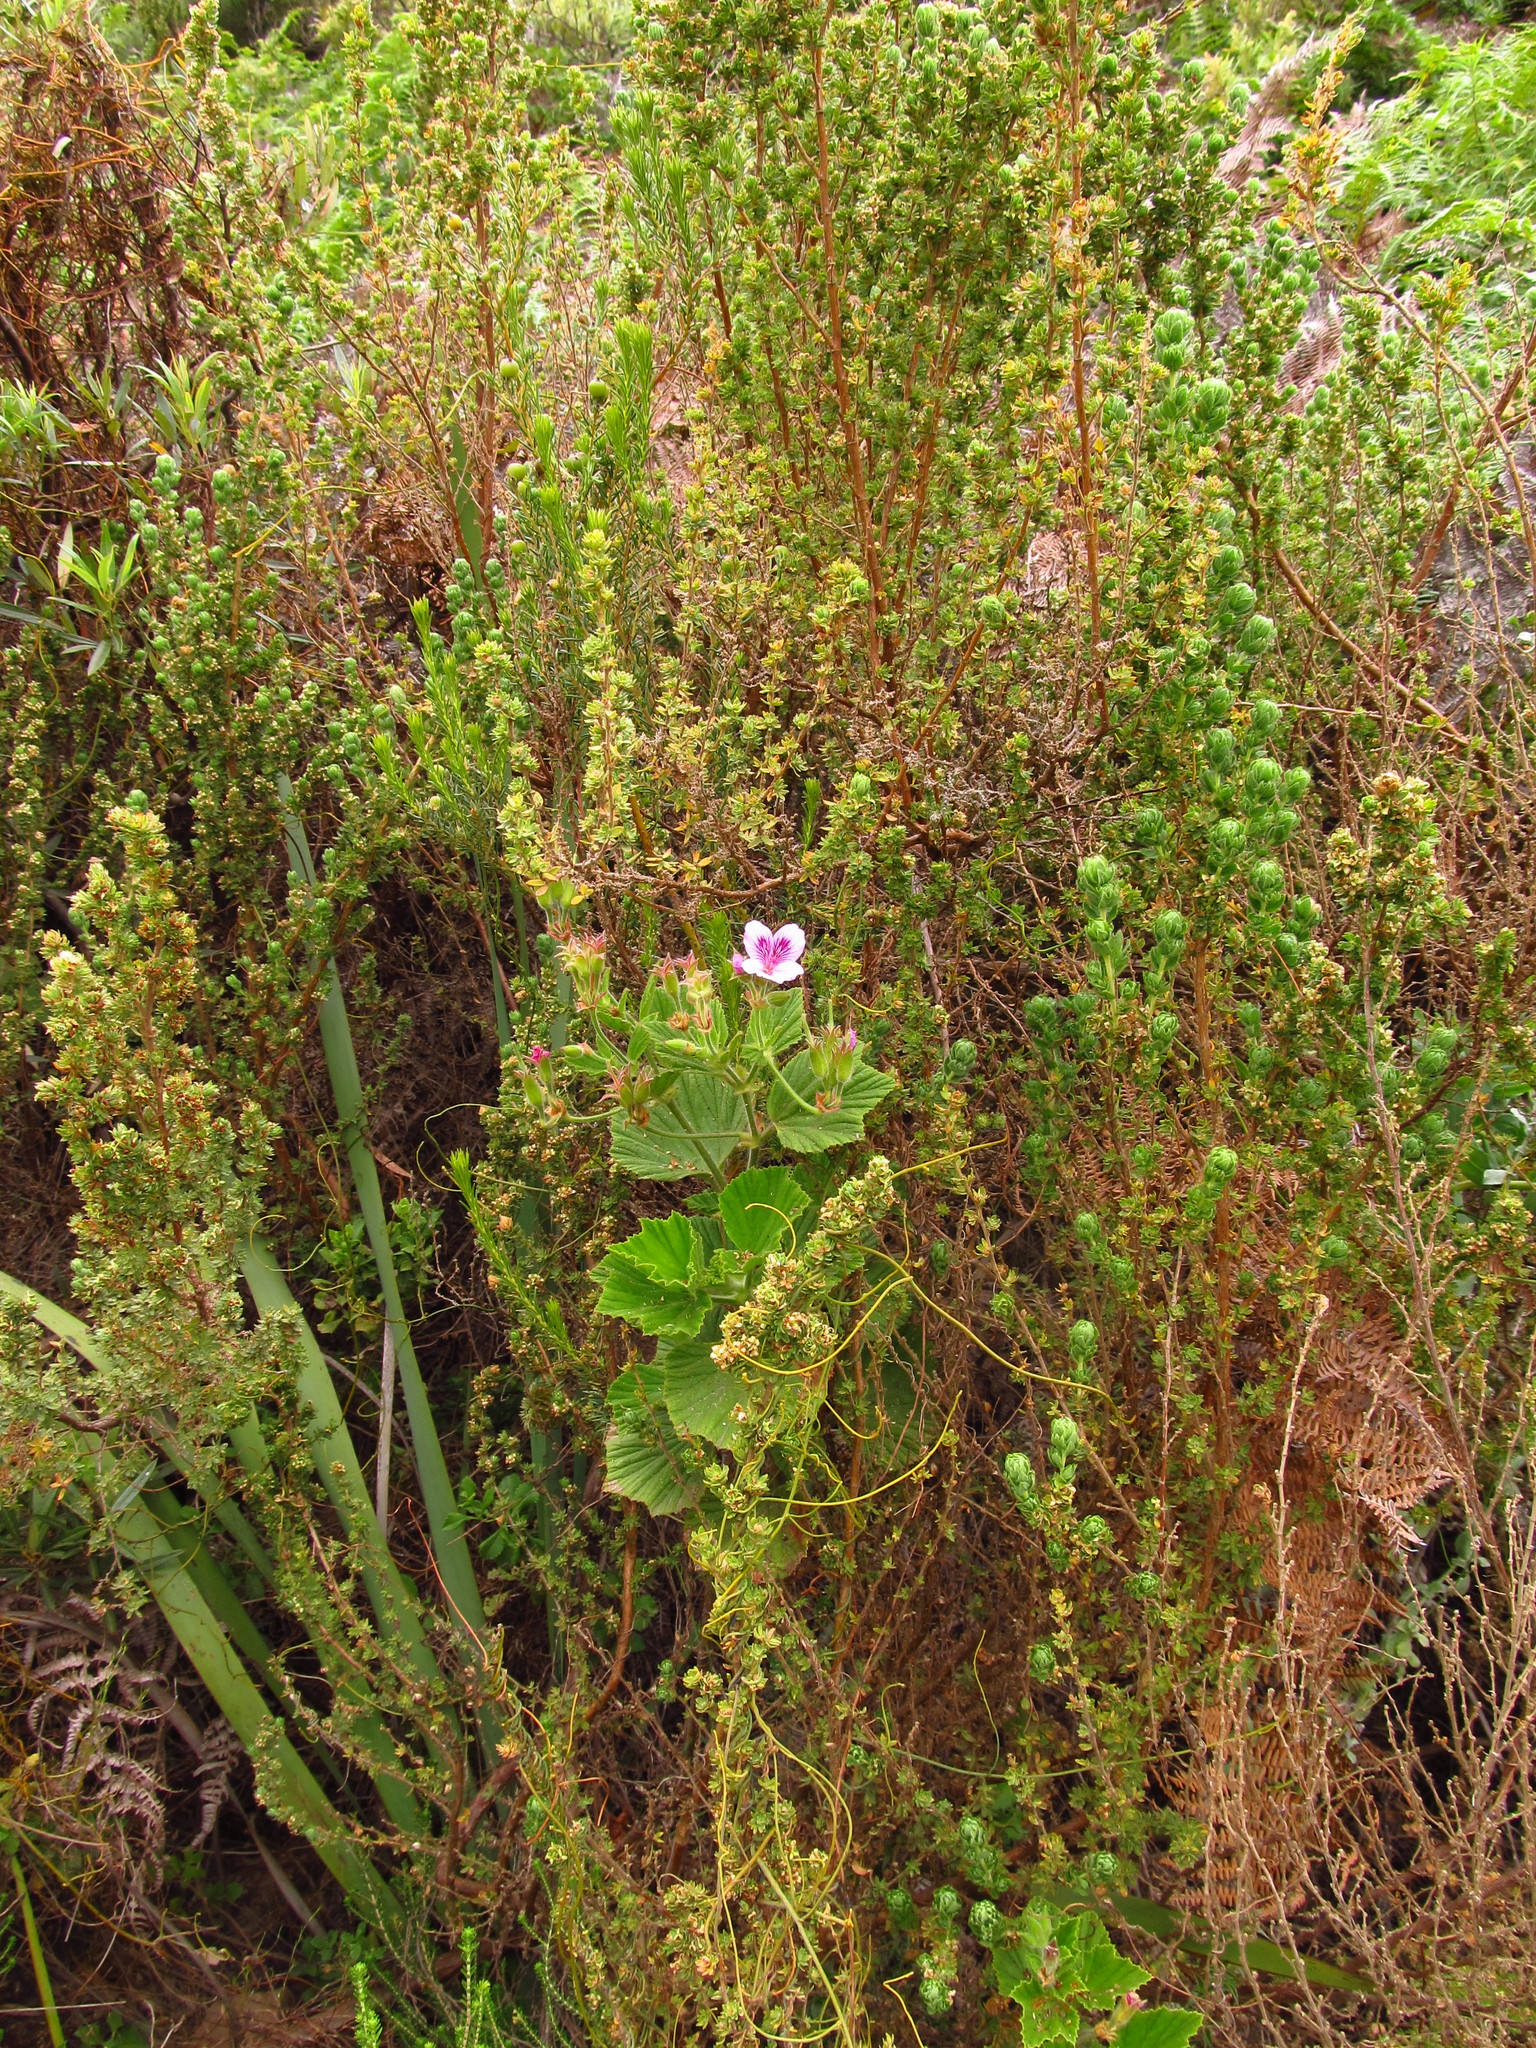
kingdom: Plantae
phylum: Tracheophyta
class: Magnoliopsida
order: Geraniales
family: Geraniaceae
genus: Pelargonium
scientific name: Pelargonium cucullatum
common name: Tree pelargonium
